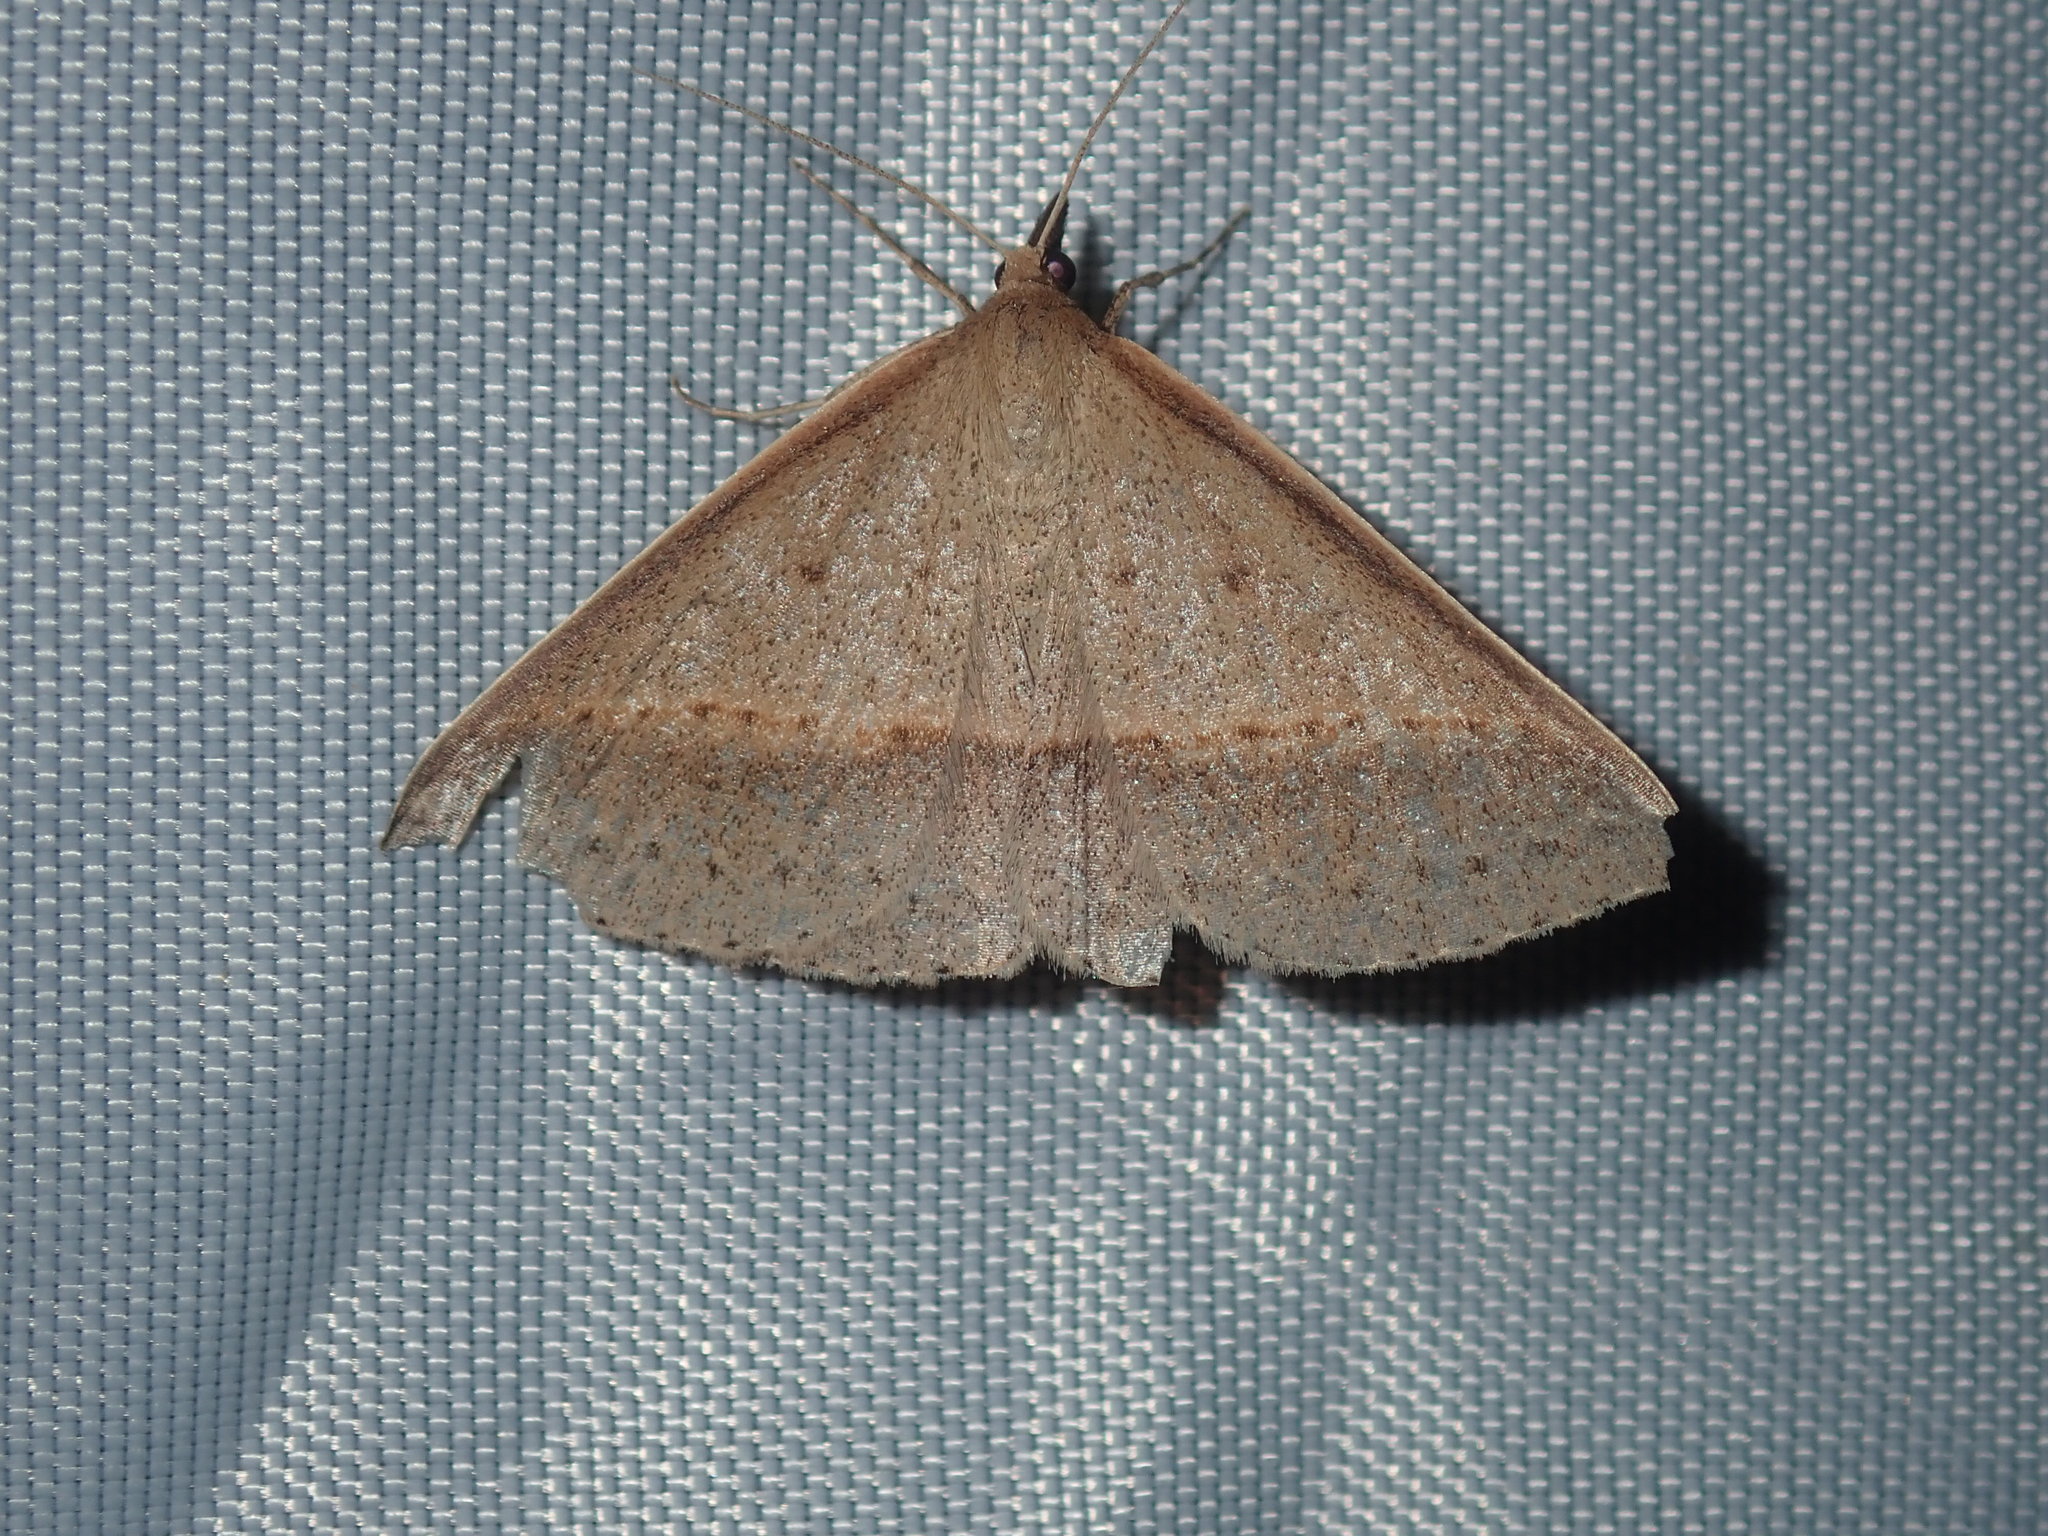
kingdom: Animalia
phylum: Arthropoda
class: Insecta
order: Lepidoptera
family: Geometridae
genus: Epidesmia
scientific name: Epidesmia tryxaria
